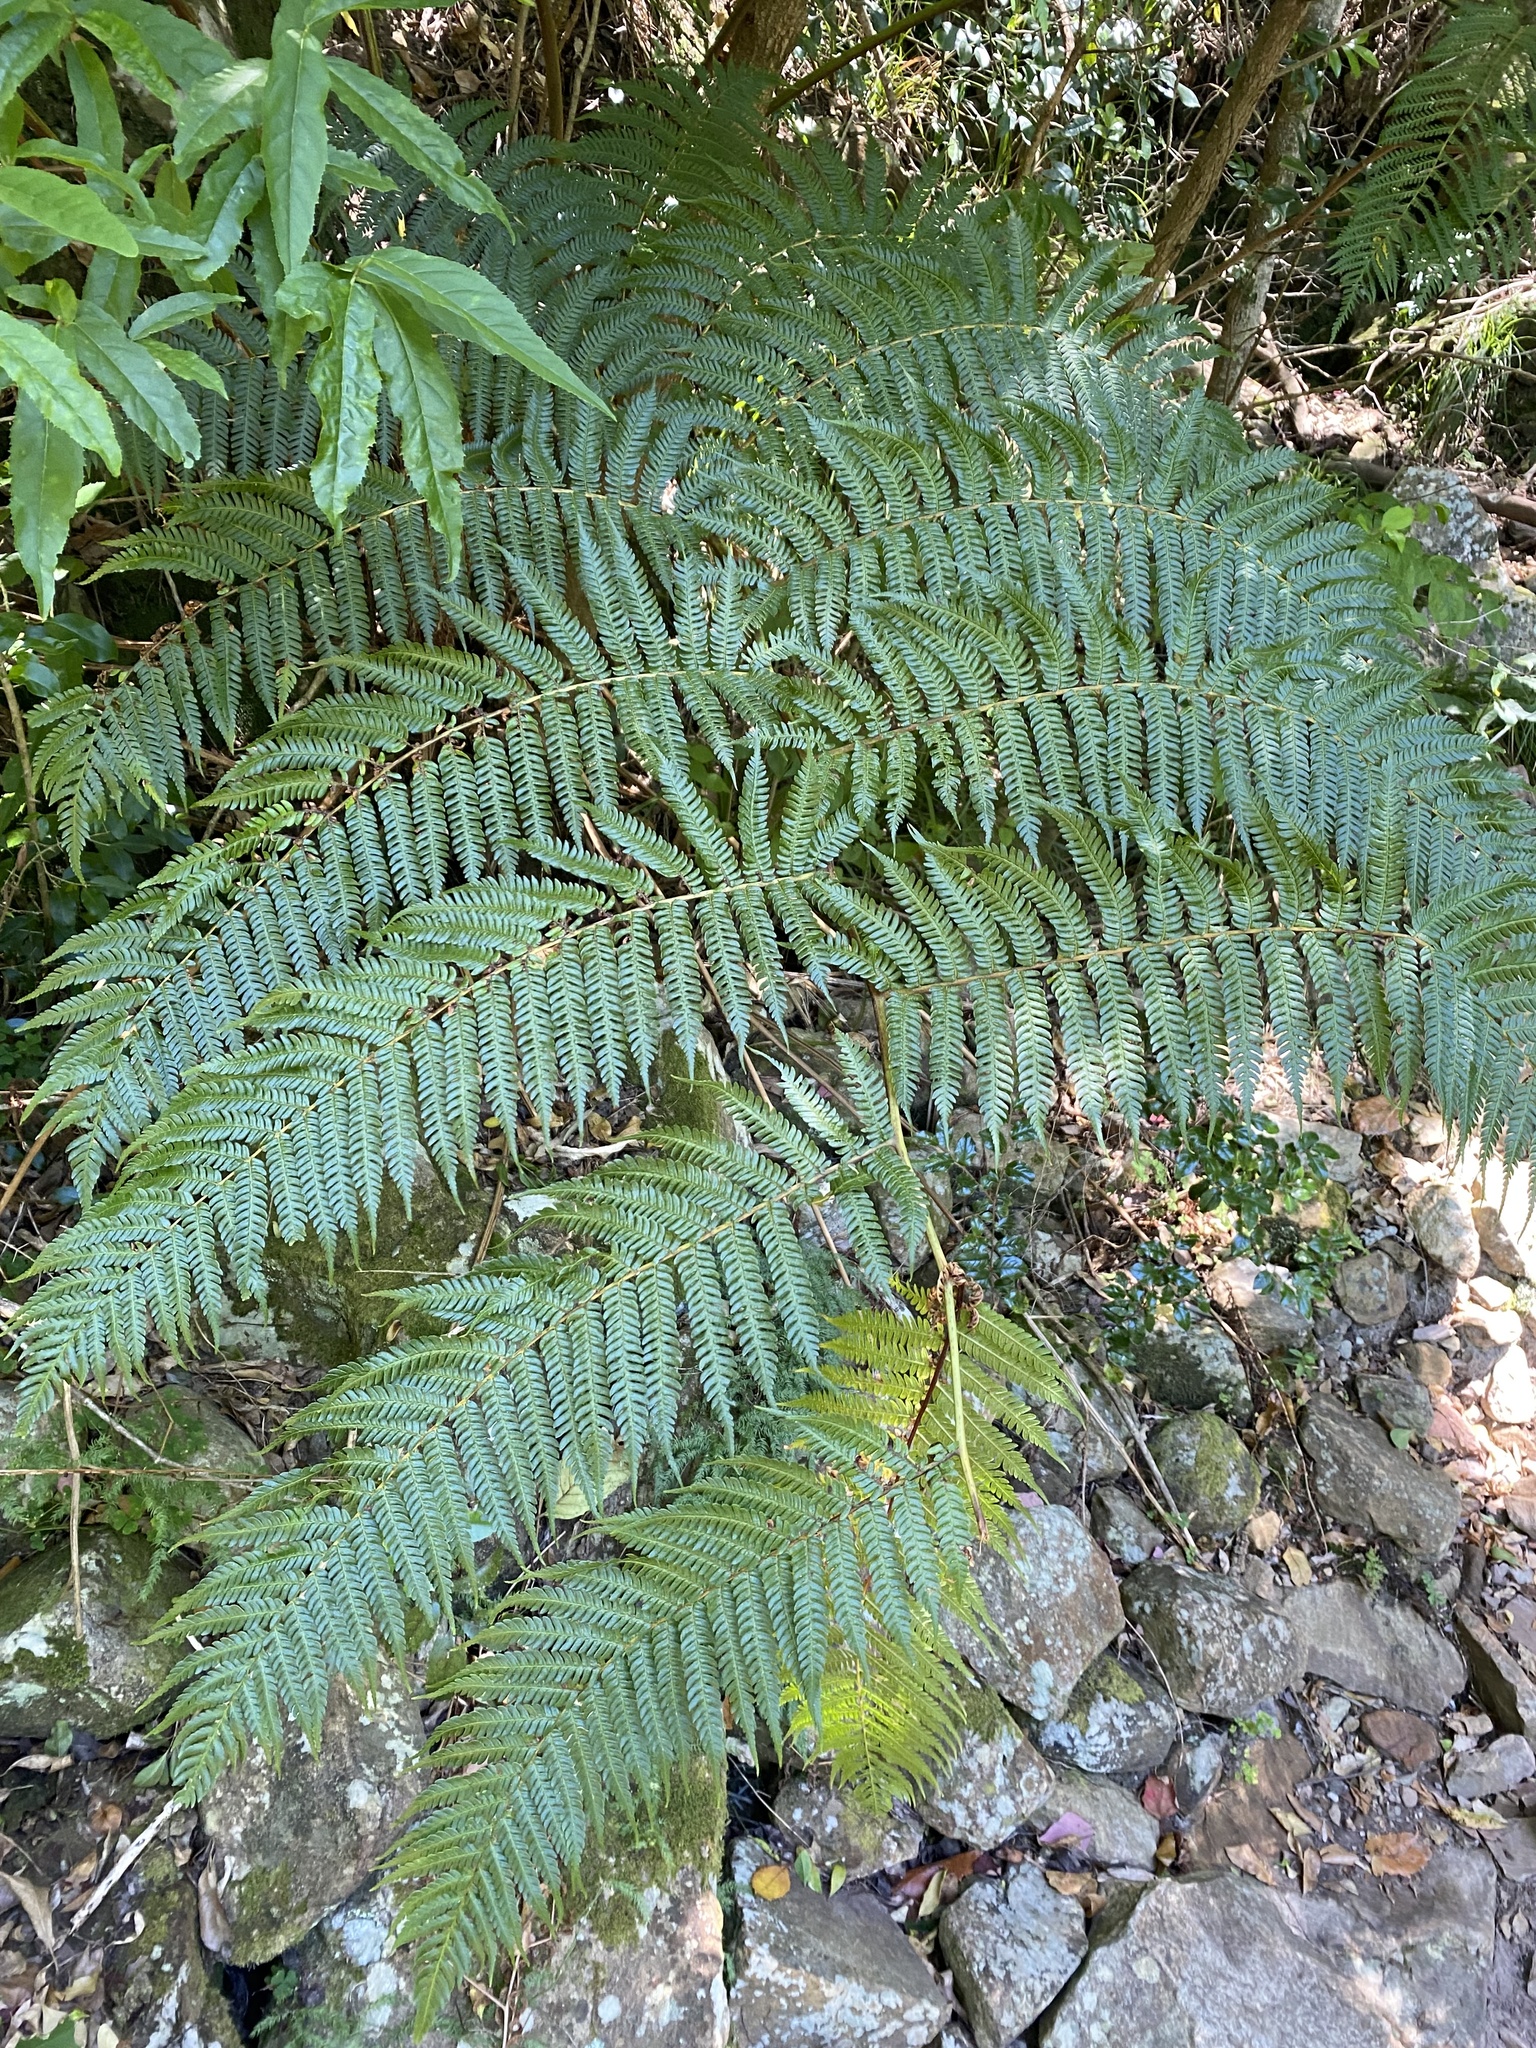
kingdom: Plantae
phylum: Tracheophyta
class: Polypodiopsida
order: Cyatheales
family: Cyatheaceae
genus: Sphaeropteris
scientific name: Sphaeropteris cooperi
